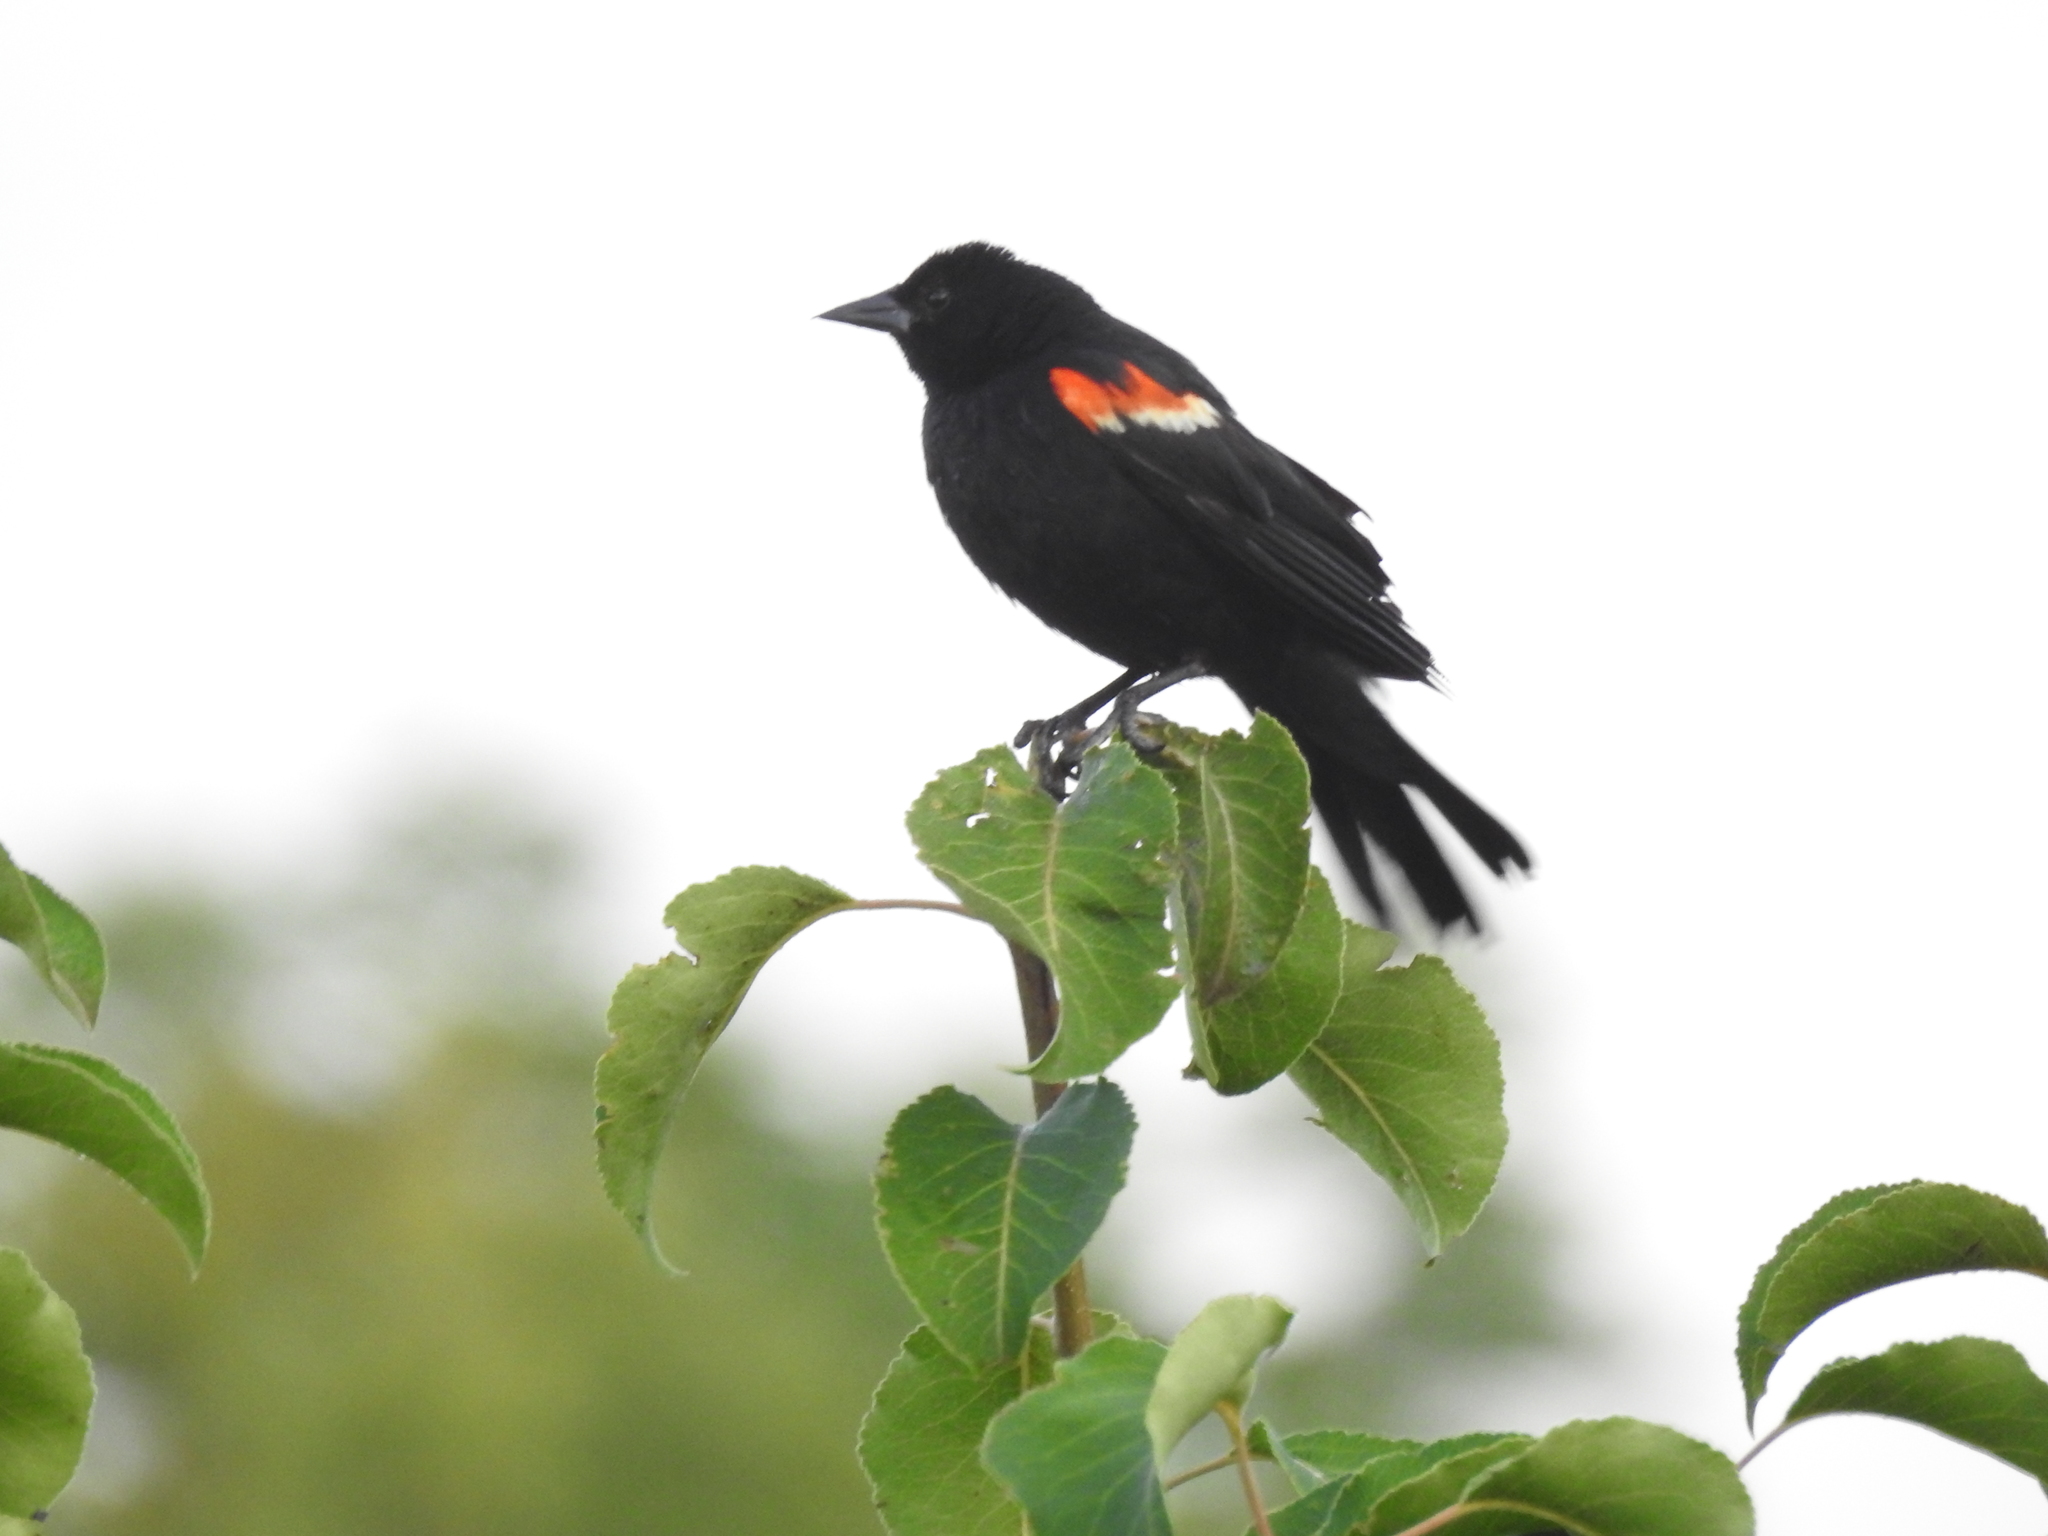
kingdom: Animalia
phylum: Chordata
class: Aves
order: Passeriformes
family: Icteridae
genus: Agelaius
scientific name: Agelaius phoeniceus
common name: Red-winged blackbird
